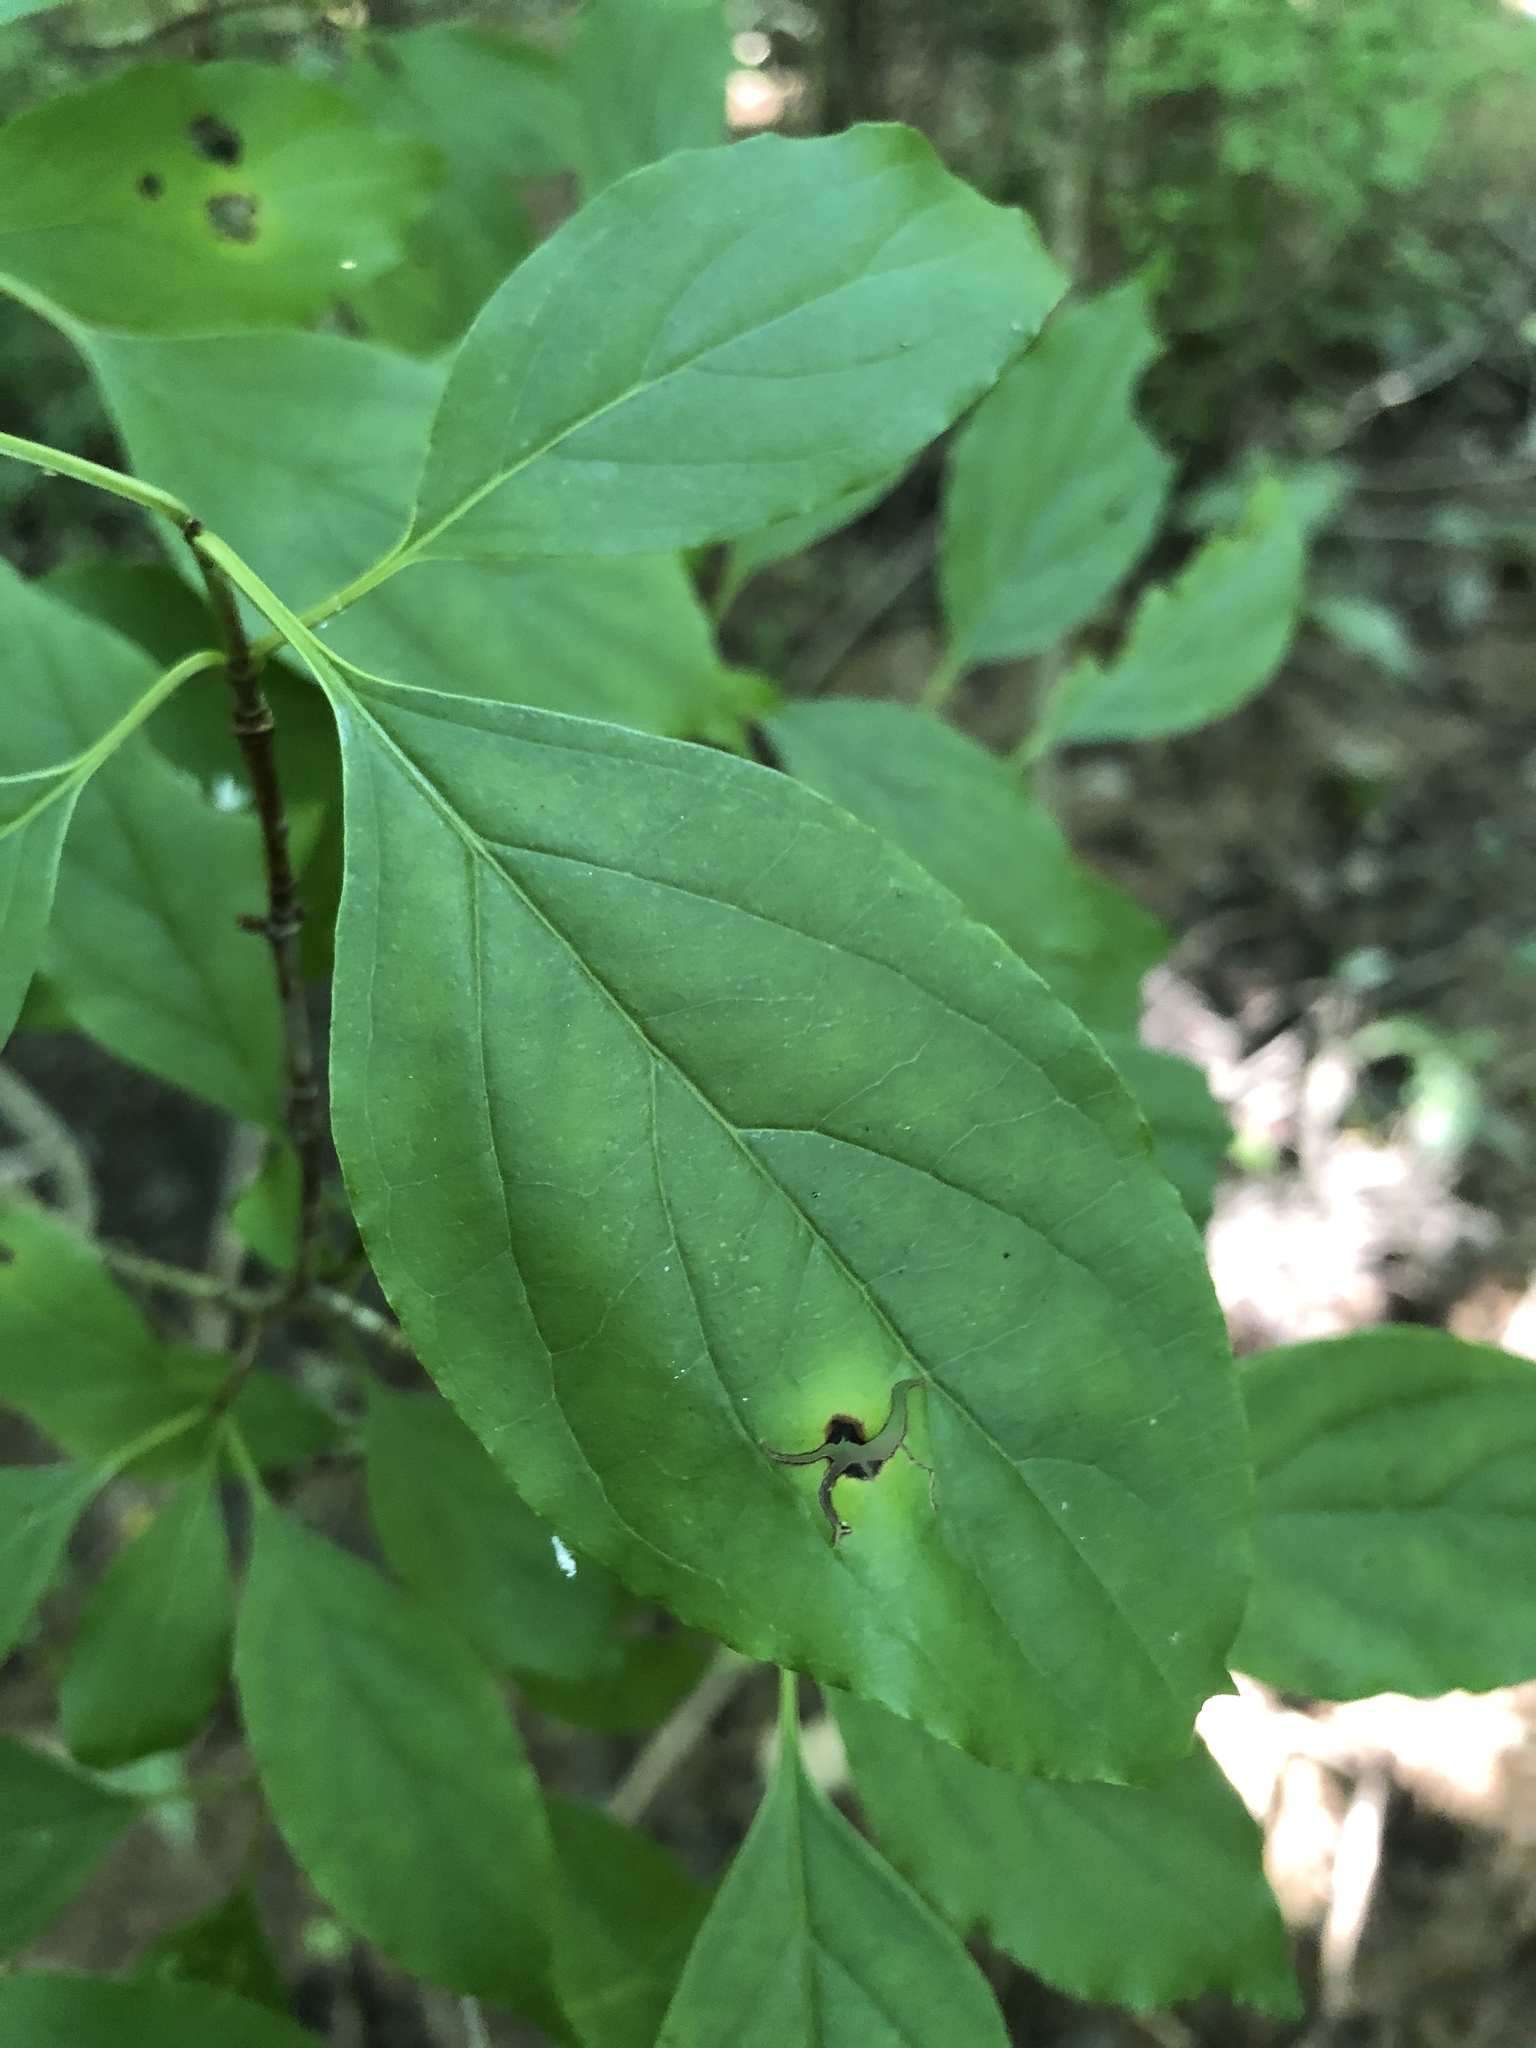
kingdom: Plantae
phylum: Tracheophyta
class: Magnoliopsida
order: Cornales
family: Cornaceae
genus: Cornus
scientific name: Cornus foemina
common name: Swamp dogwood
